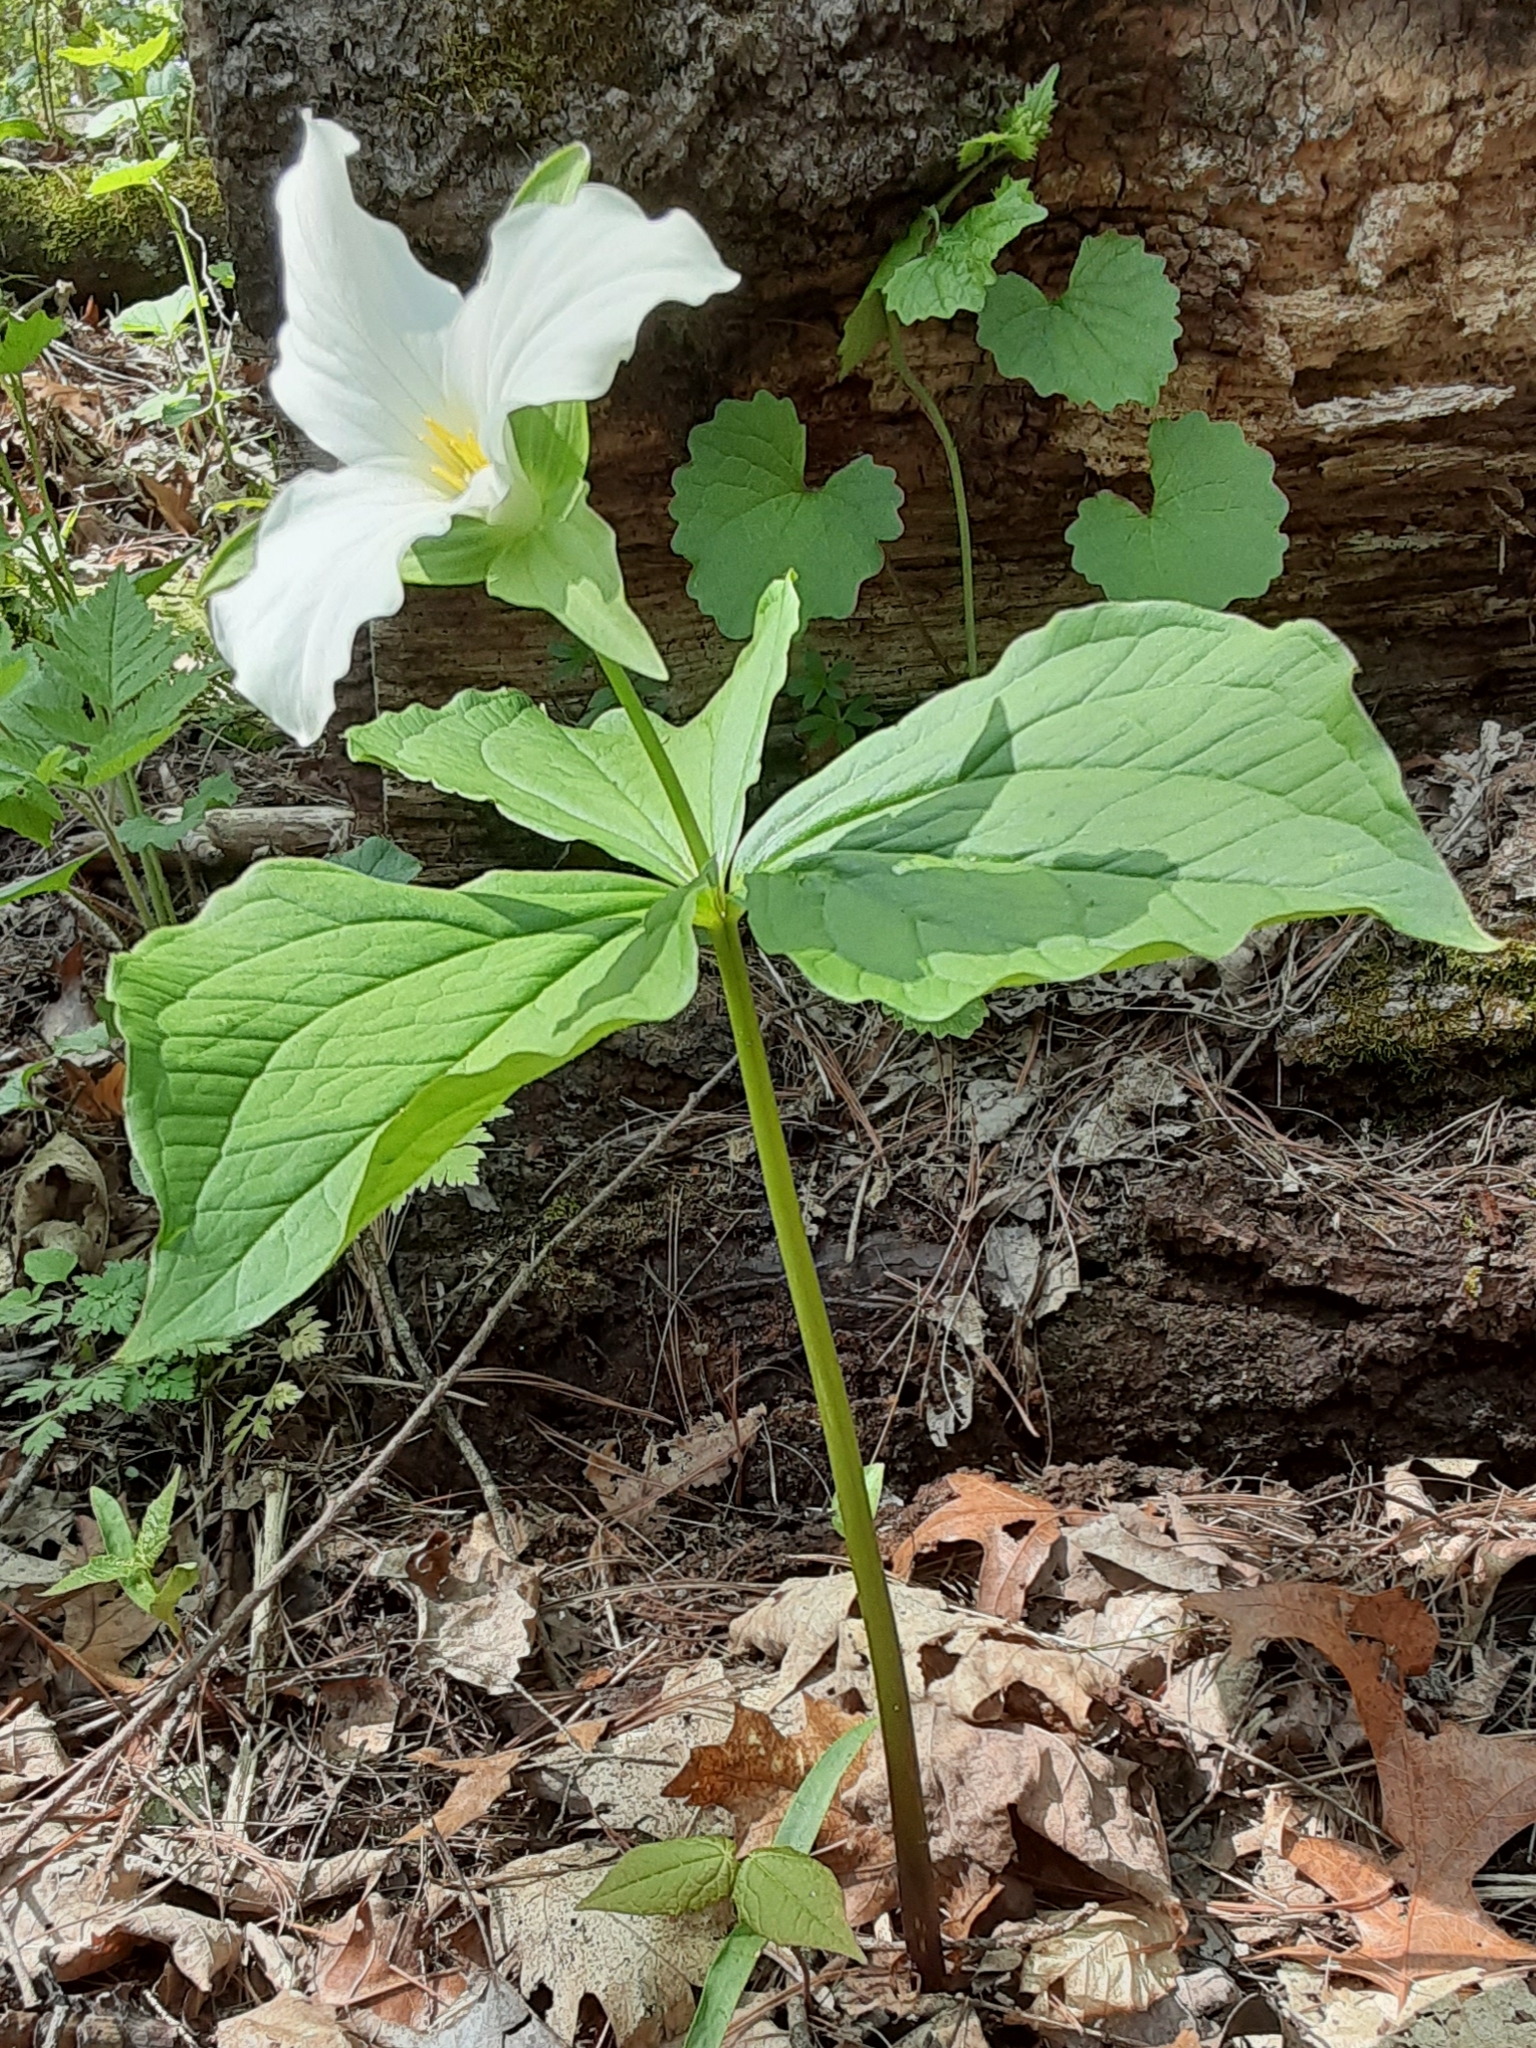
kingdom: Plantae
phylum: Tracheophyta
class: Liliopsida
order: Liliales
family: Melanthiaceae
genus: Trillium
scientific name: Trillium grandiflorum
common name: Great white trillium
